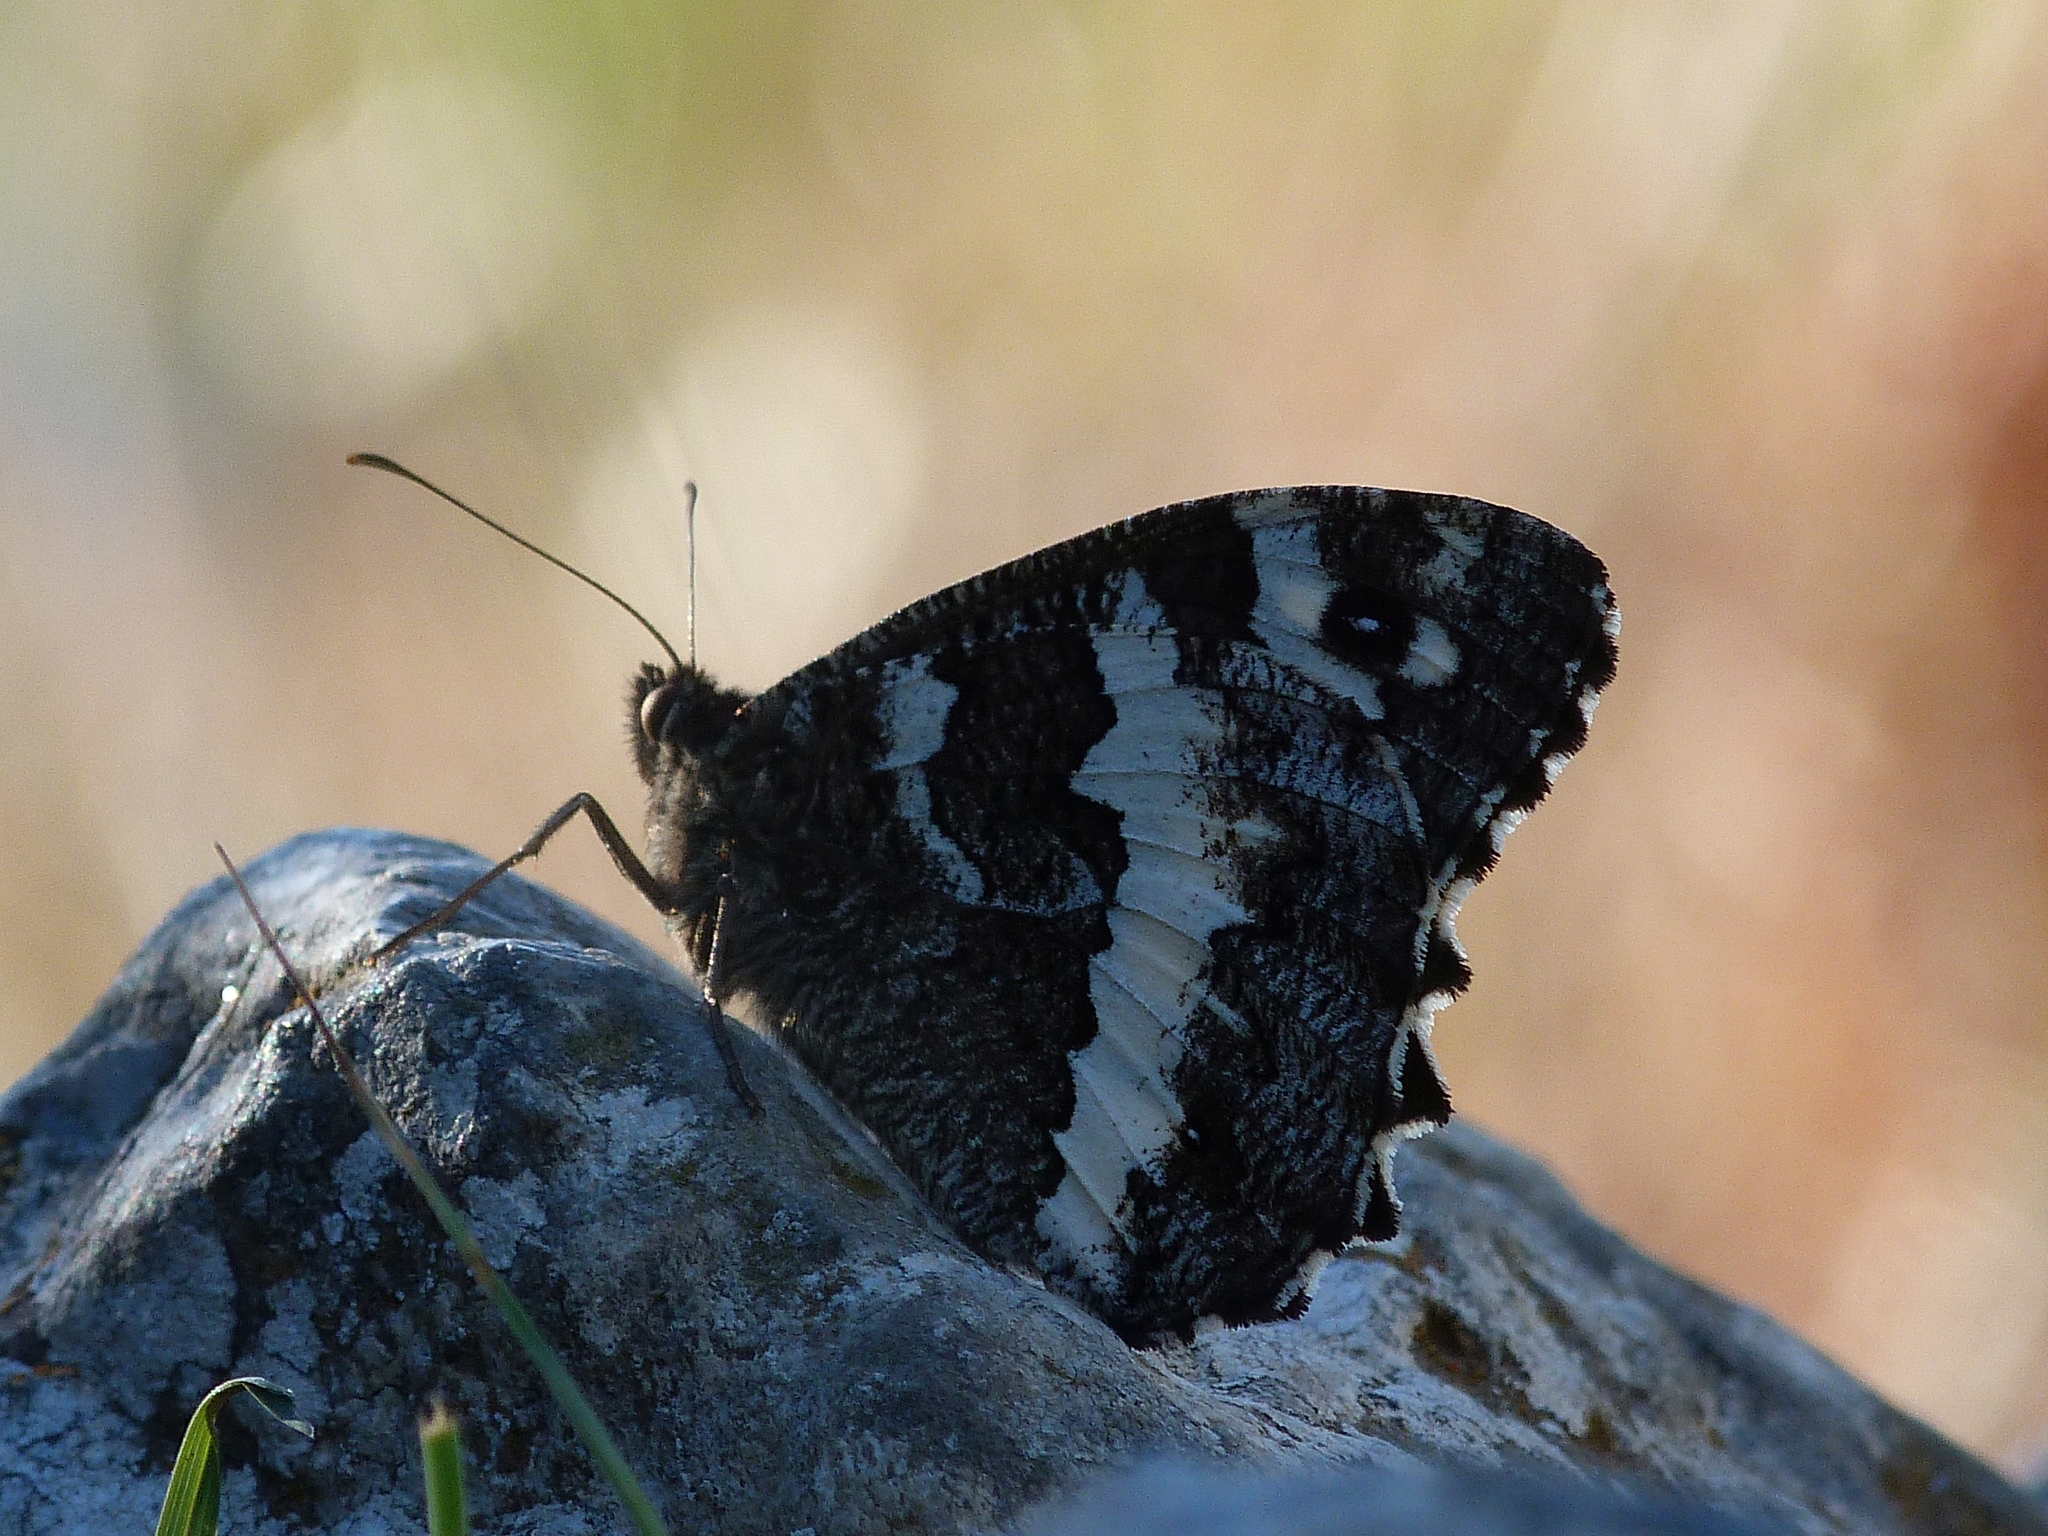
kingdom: Animalia
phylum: Arthropoda
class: Insecta
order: Lepidoptera
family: Lycaenidae
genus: Loweia
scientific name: Loweia tityrus
